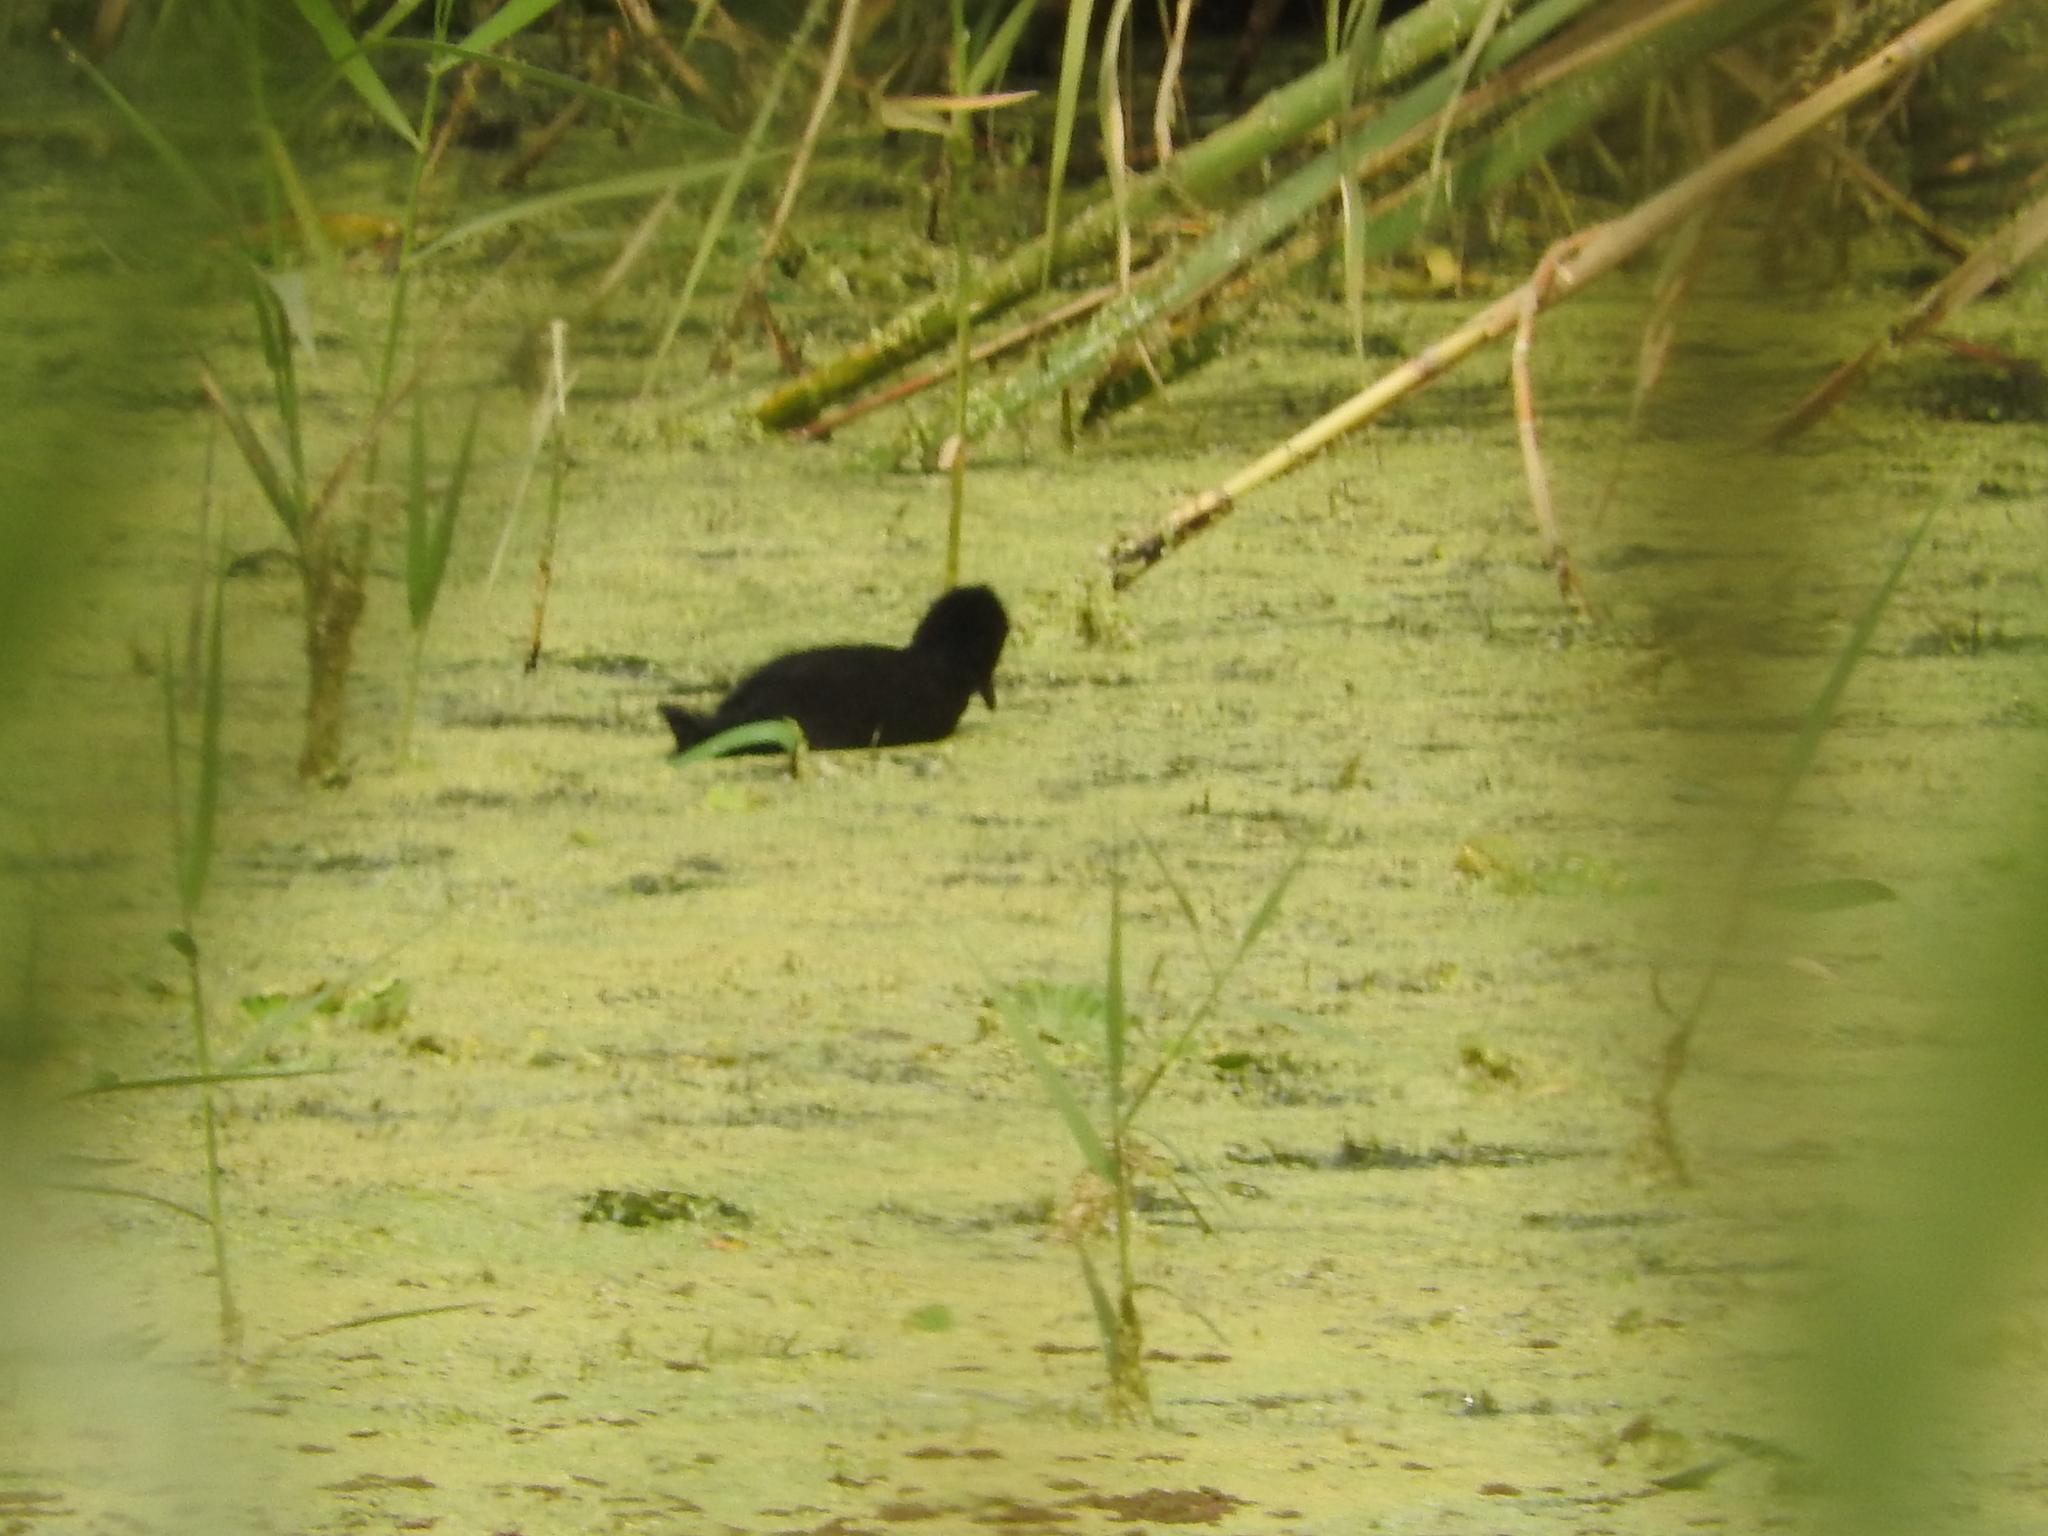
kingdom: Animalia
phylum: Chordata
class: Aves
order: Gruiformes
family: Rallidae
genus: Amaurornis
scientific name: Amaurornis flavirostra
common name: Black crake
